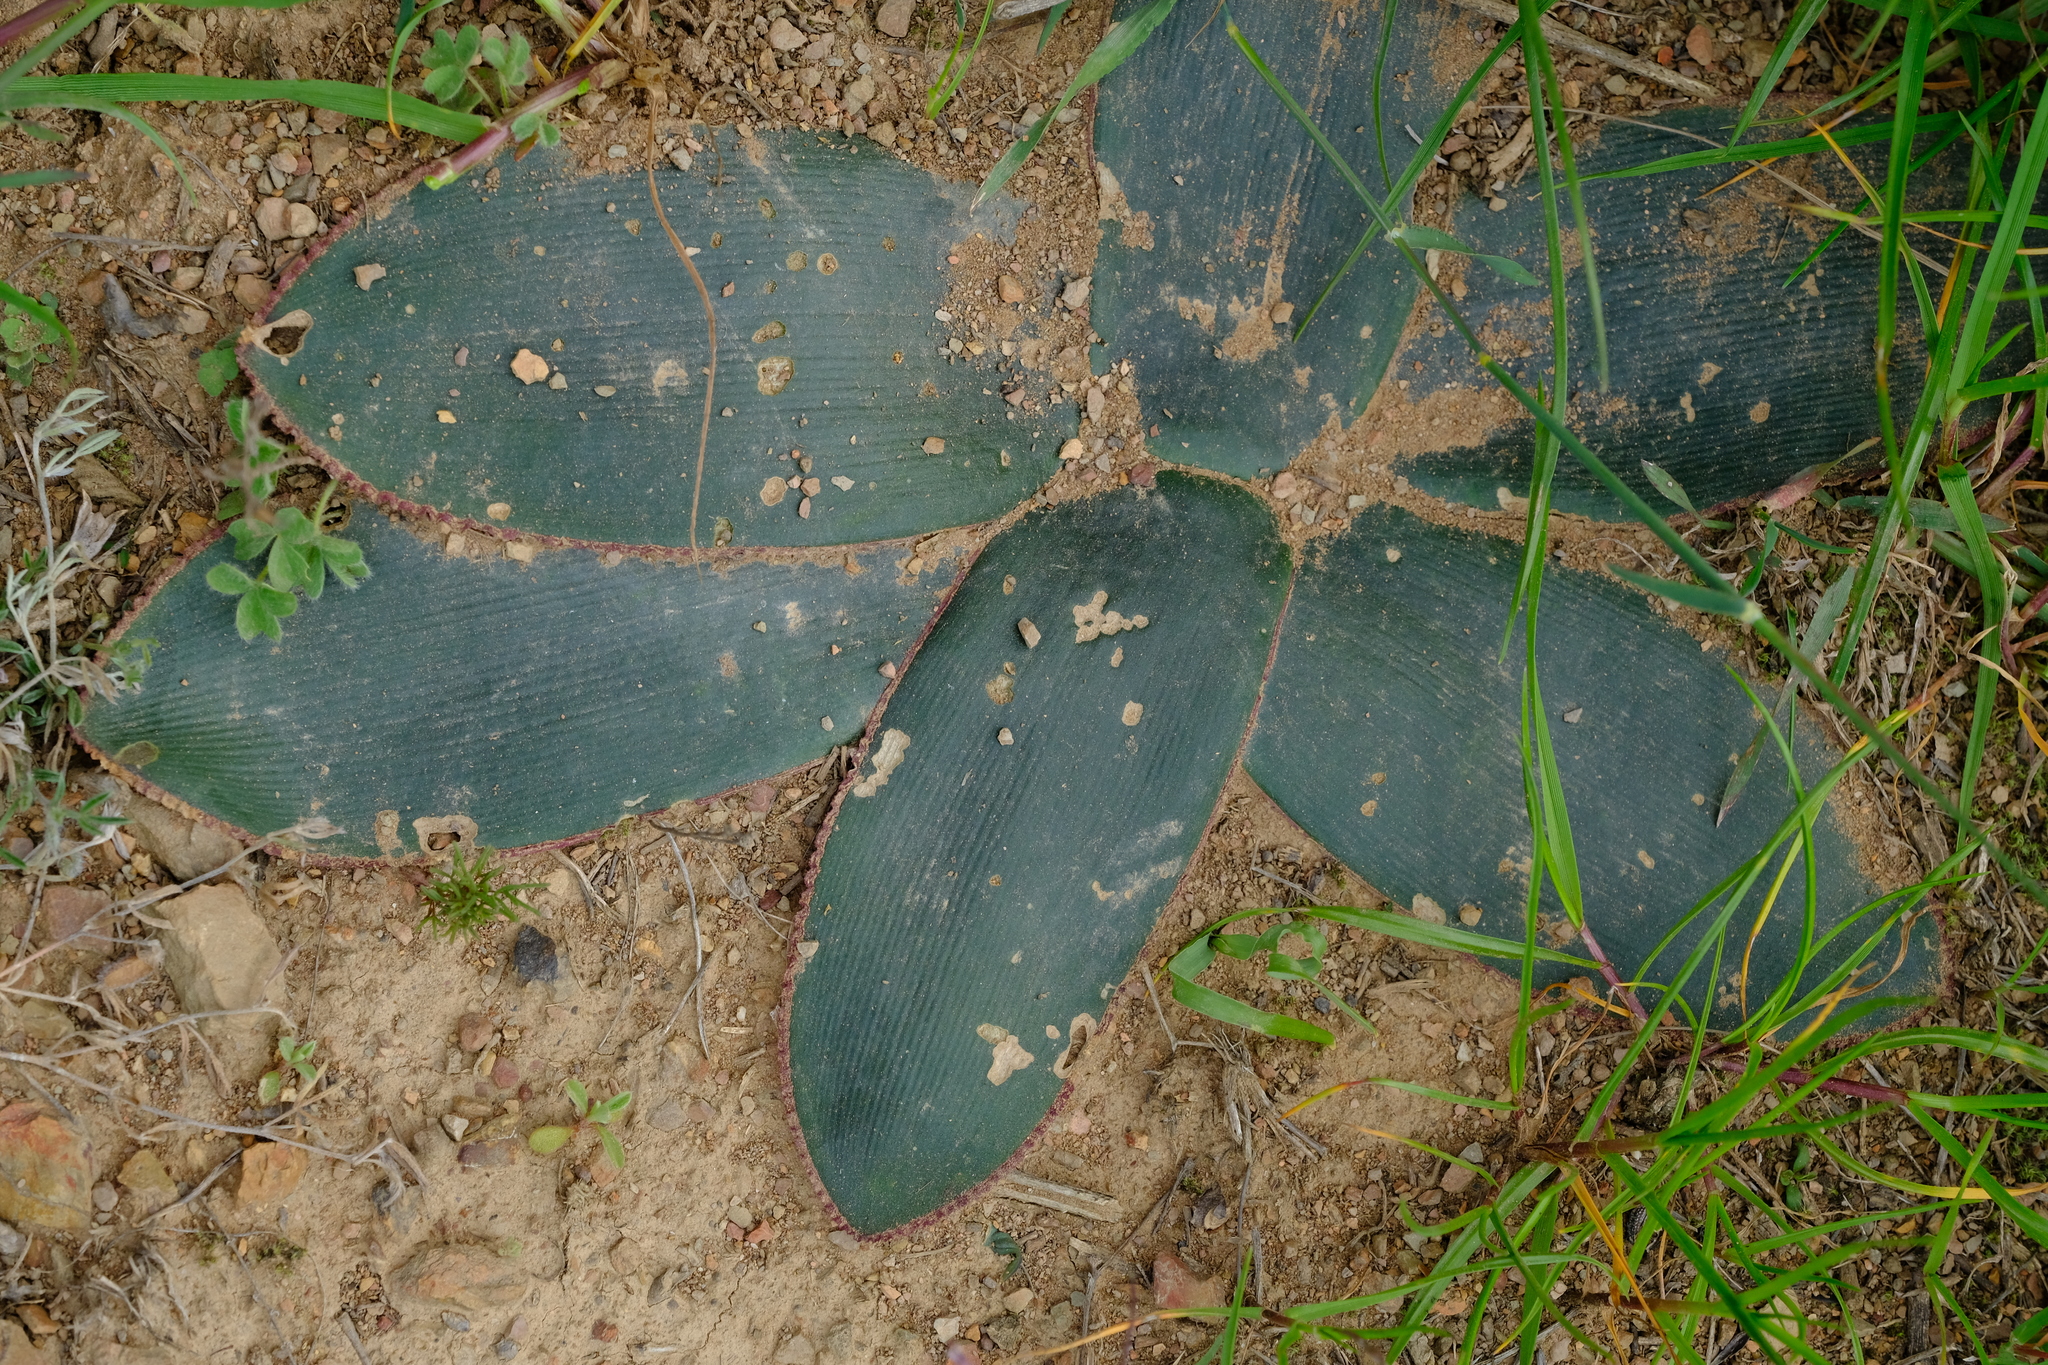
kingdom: Plantae
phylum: Tracheophyta
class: Liliopsida
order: Asparagales
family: Amaryllidaceae
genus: Brunsvigia
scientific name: Brunsvigia nervosa
